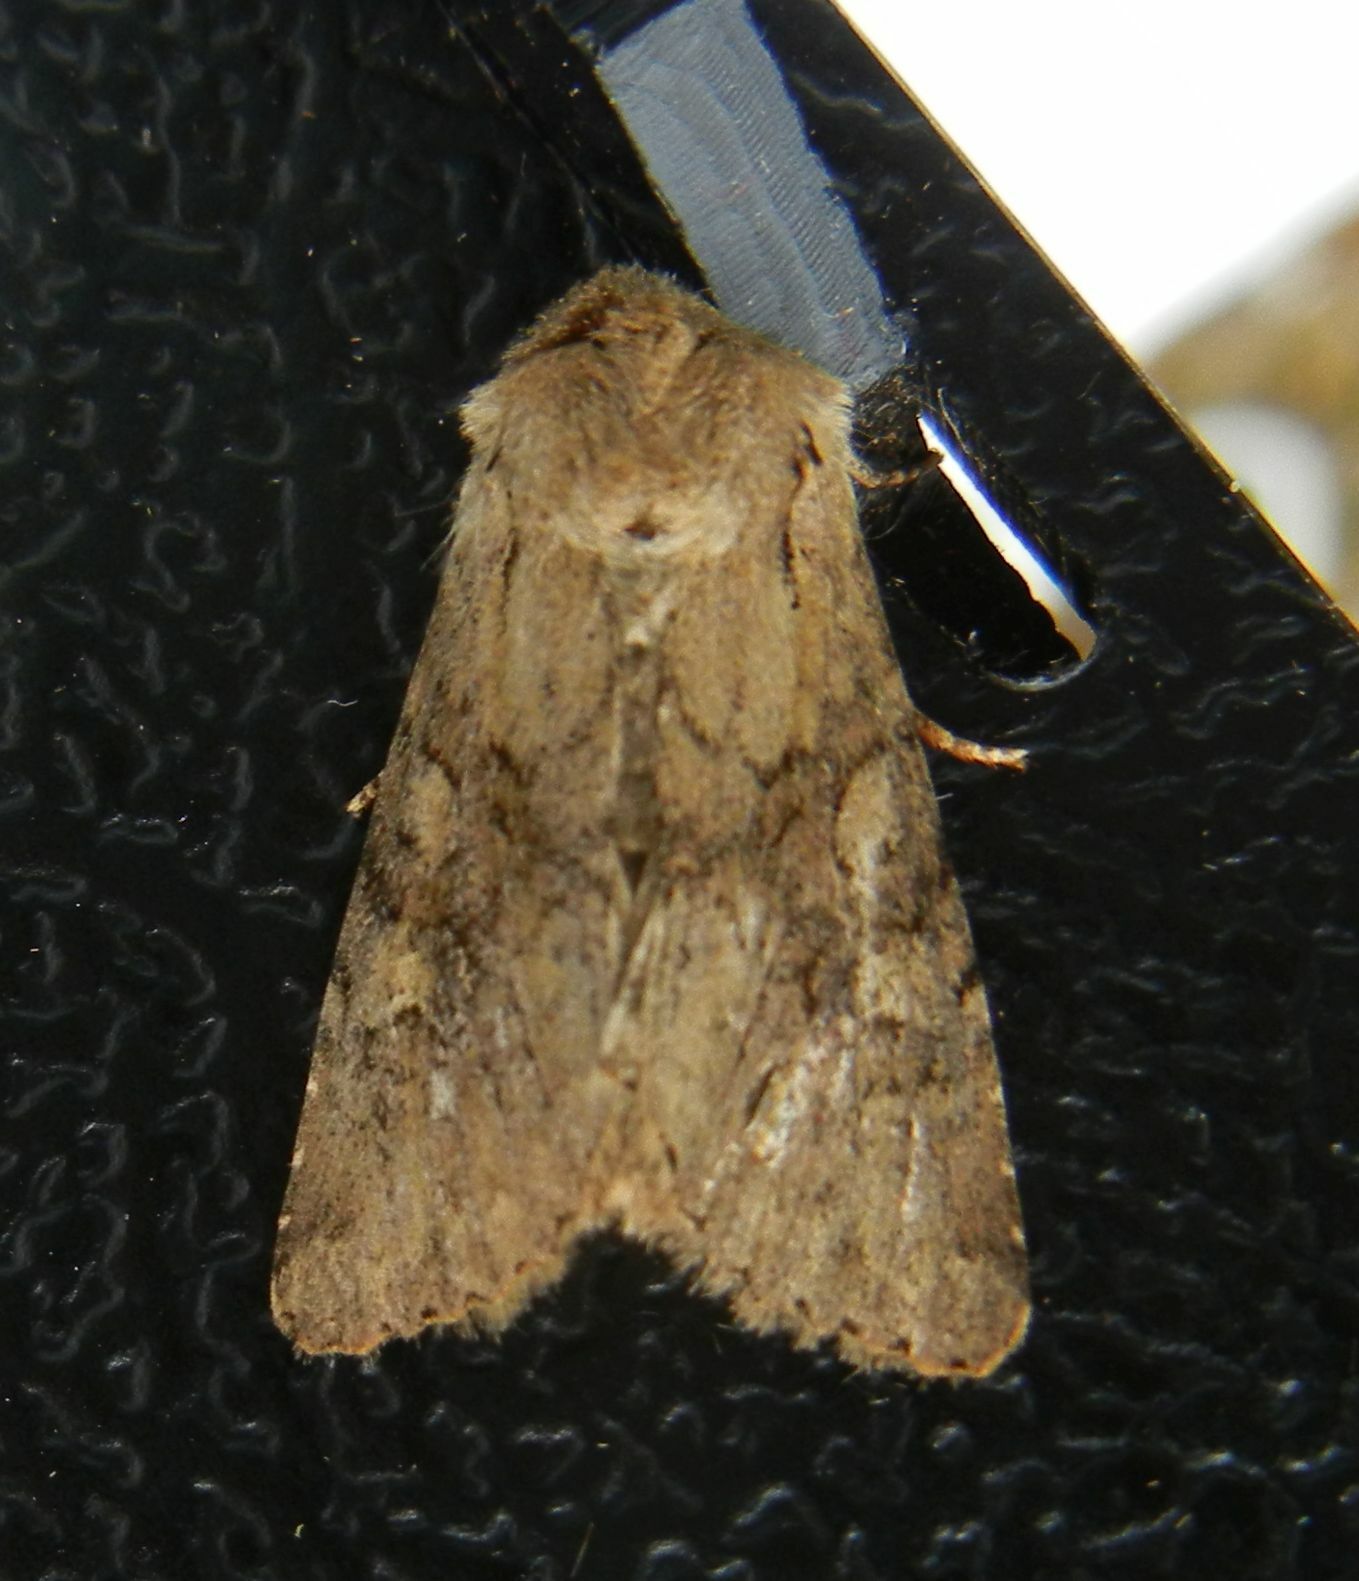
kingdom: Animalia
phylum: Arthropoda
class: Insecta
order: Lepidoptera
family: Noctuidae
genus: Apamea
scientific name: Apamea sordens
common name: Rustic shoulder-knot
